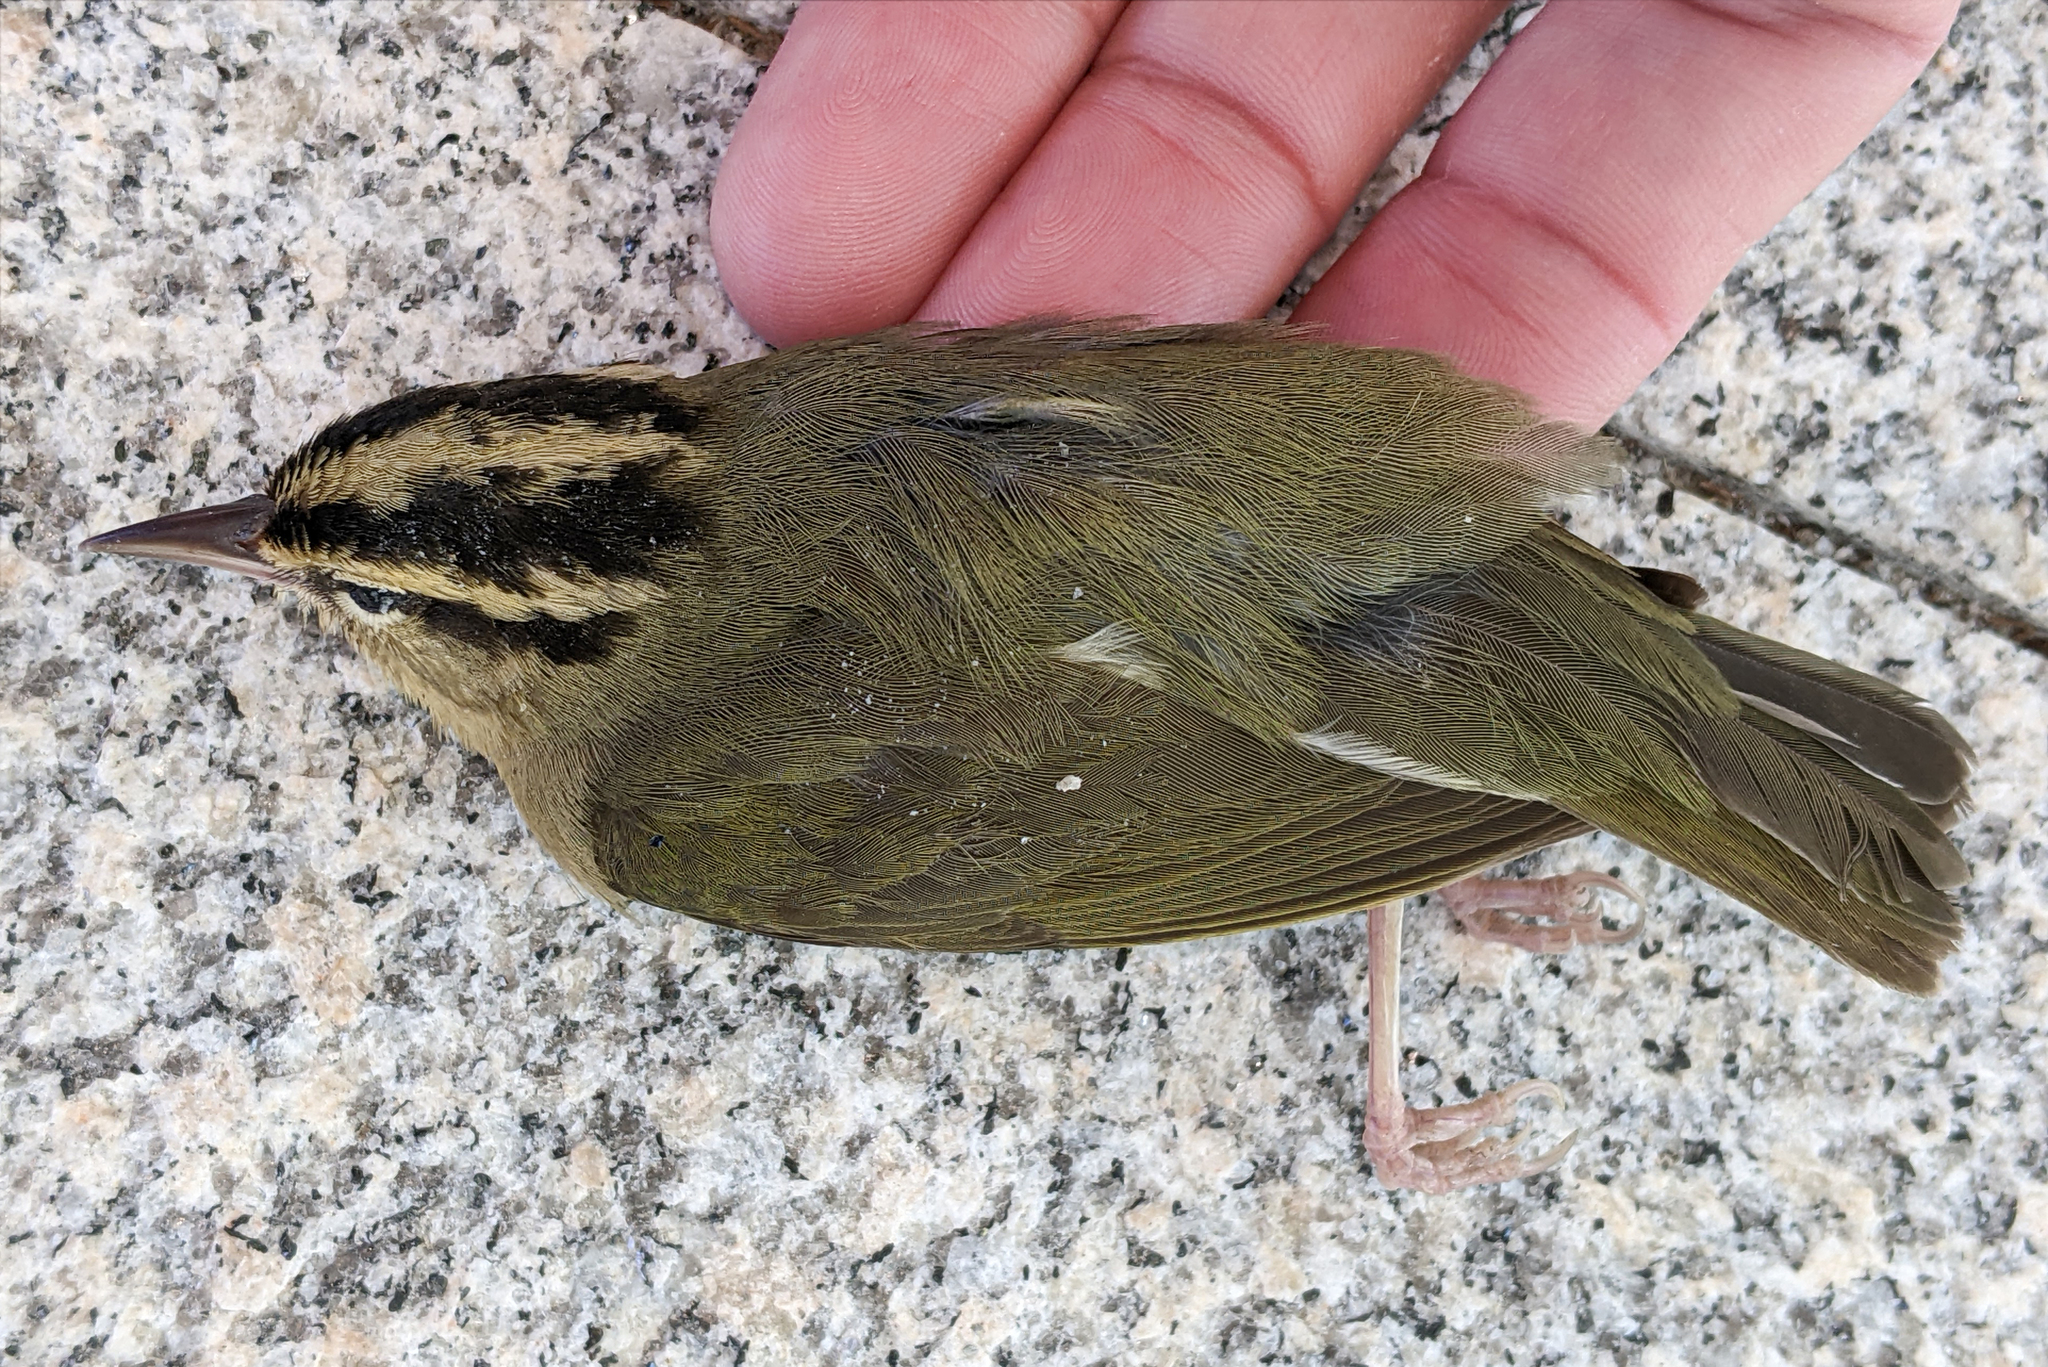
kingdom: Animalia
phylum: Chordata
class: Aves
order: Passeriformes
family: Parulidae
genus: Helmitheros
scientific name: Helmitheros vermivorum
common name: Worm-eating warbler
